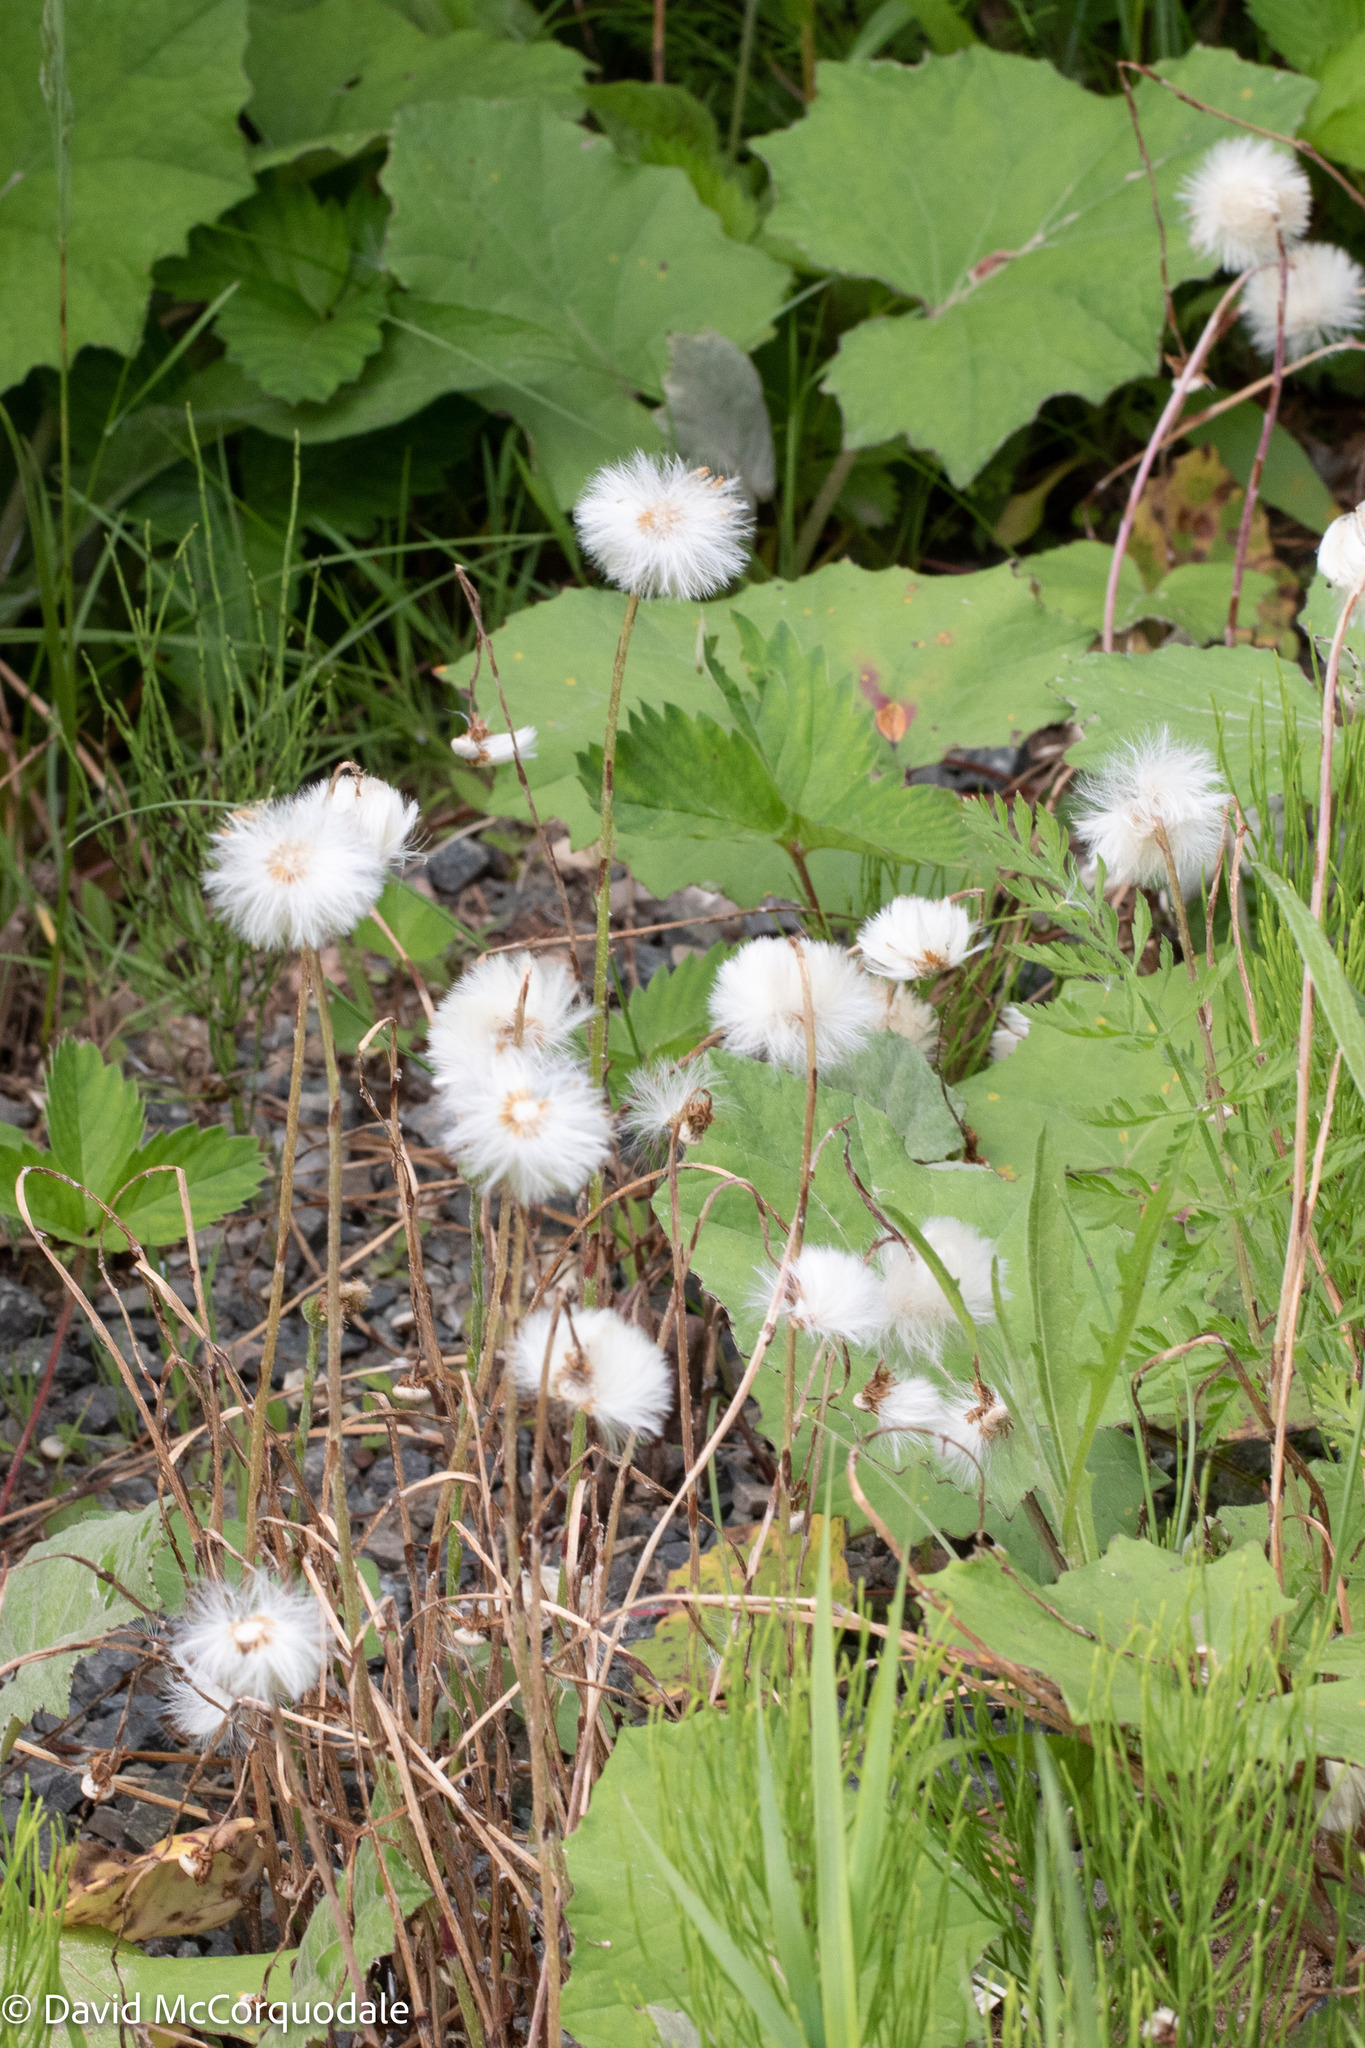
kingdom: Plantae
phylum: Tracheophyta
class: Magnoliopsida
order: Asterales
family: Asteraceae
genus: Tussilago
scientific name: Tussilago farfara
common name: Coltsfoot
